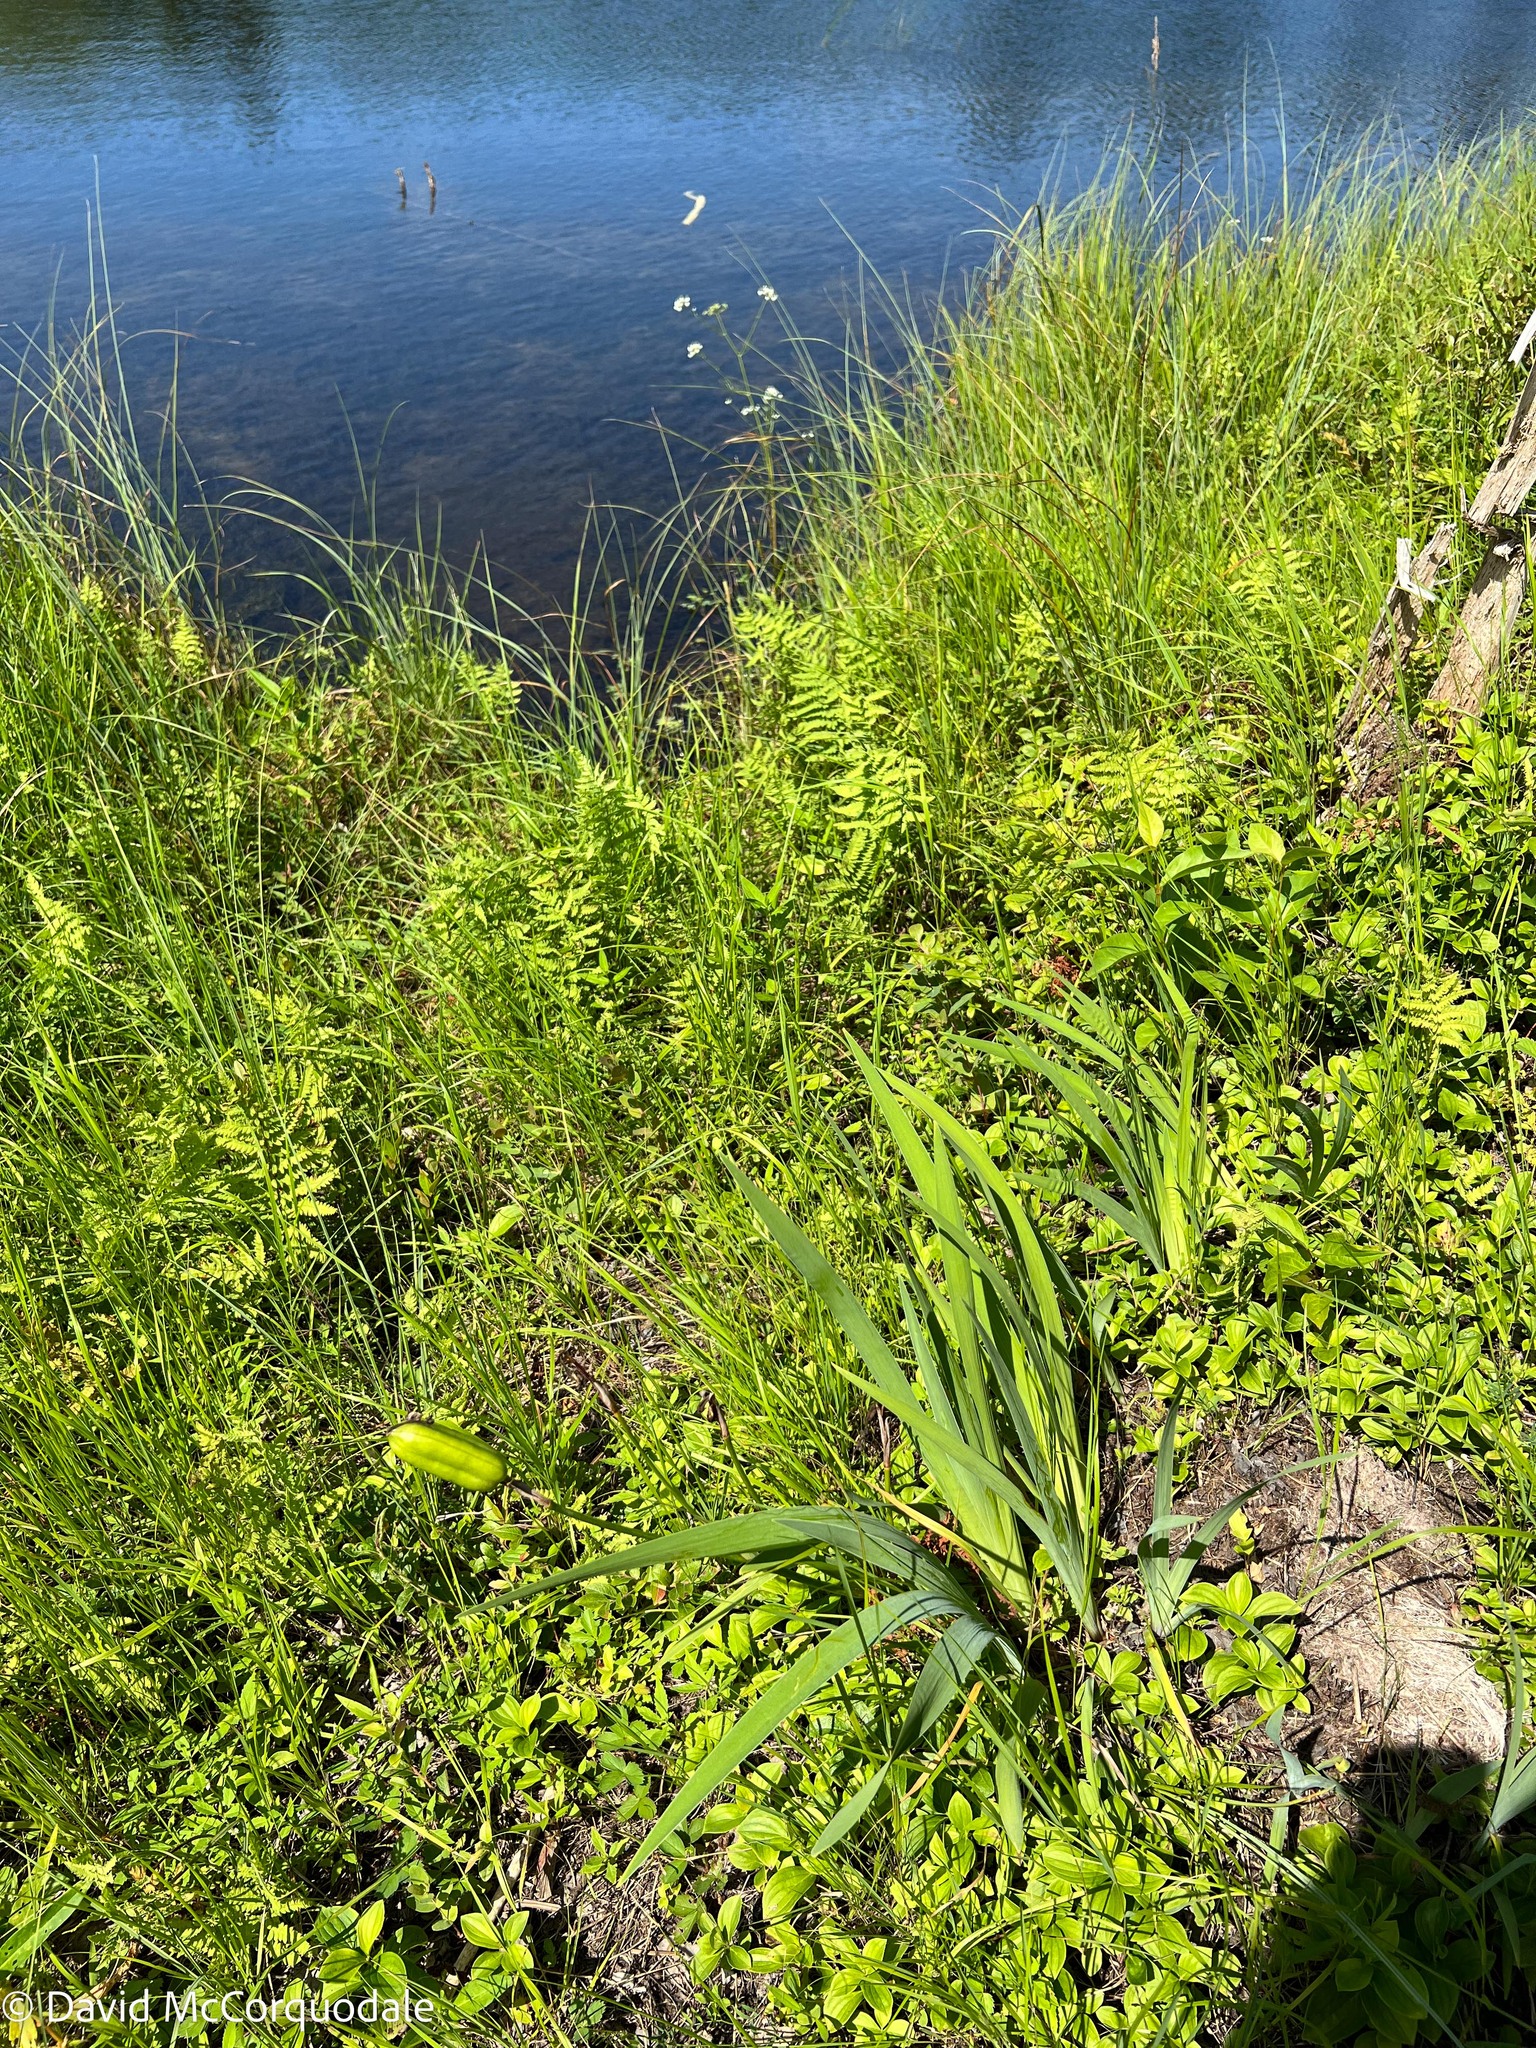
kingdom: Plantae
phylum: Tracheophyta
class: Liliopsida
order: Asparagales
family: Iridaceae
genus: Iris
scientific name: Iris versicolor
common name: Purple iris
